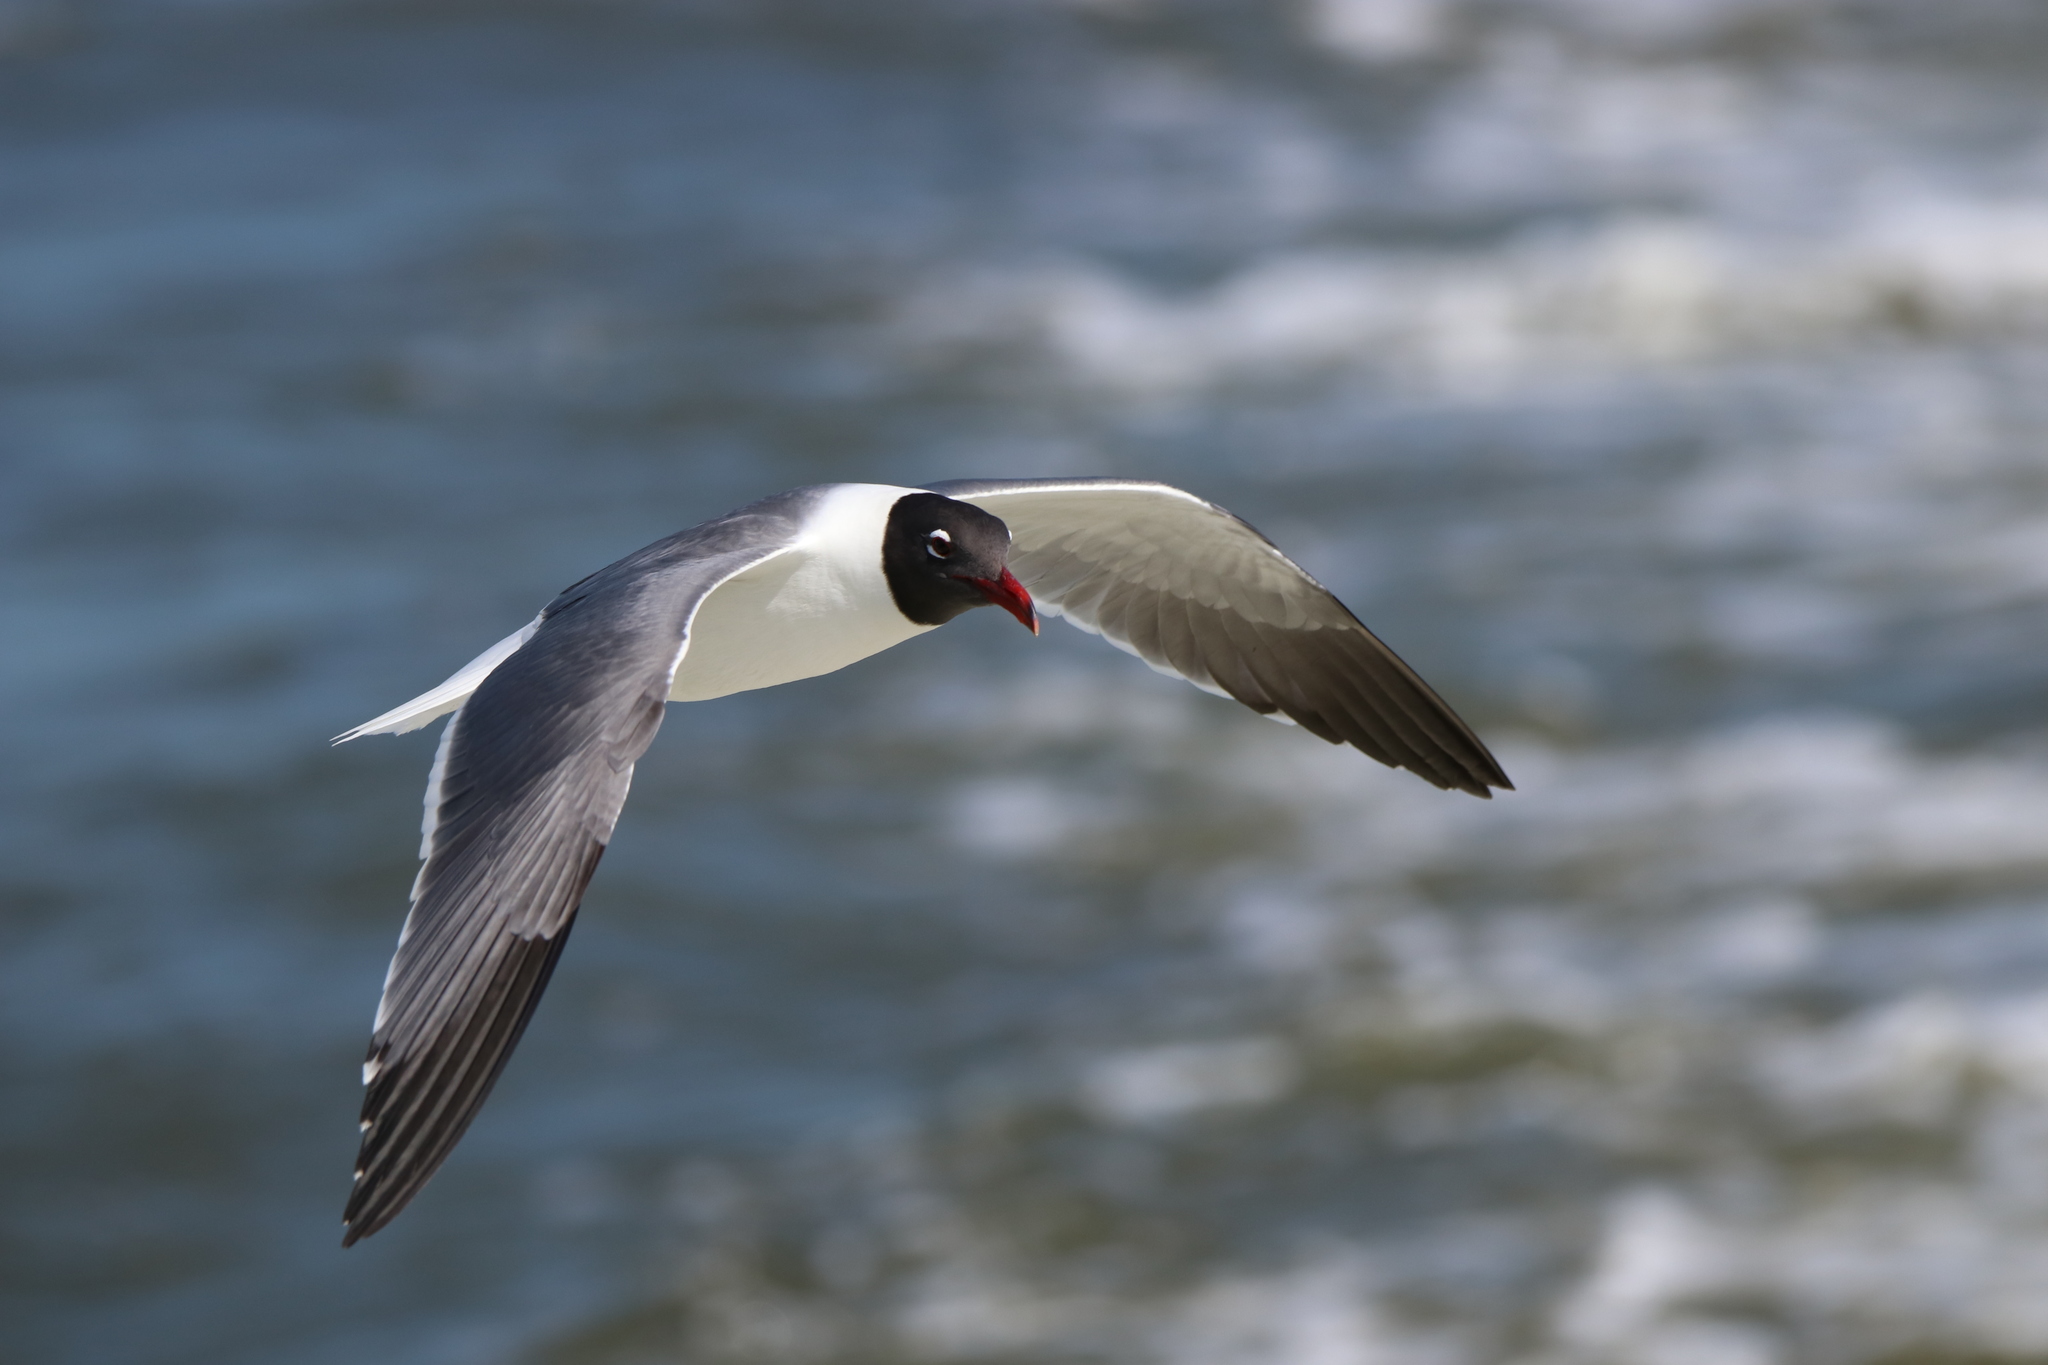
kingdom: Animalia
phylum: Chordata
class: Aves
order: Charadriiformes
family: Laridae
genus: Leucophaeus
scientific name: Leucophaeus atricilla
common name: Laughing gull
